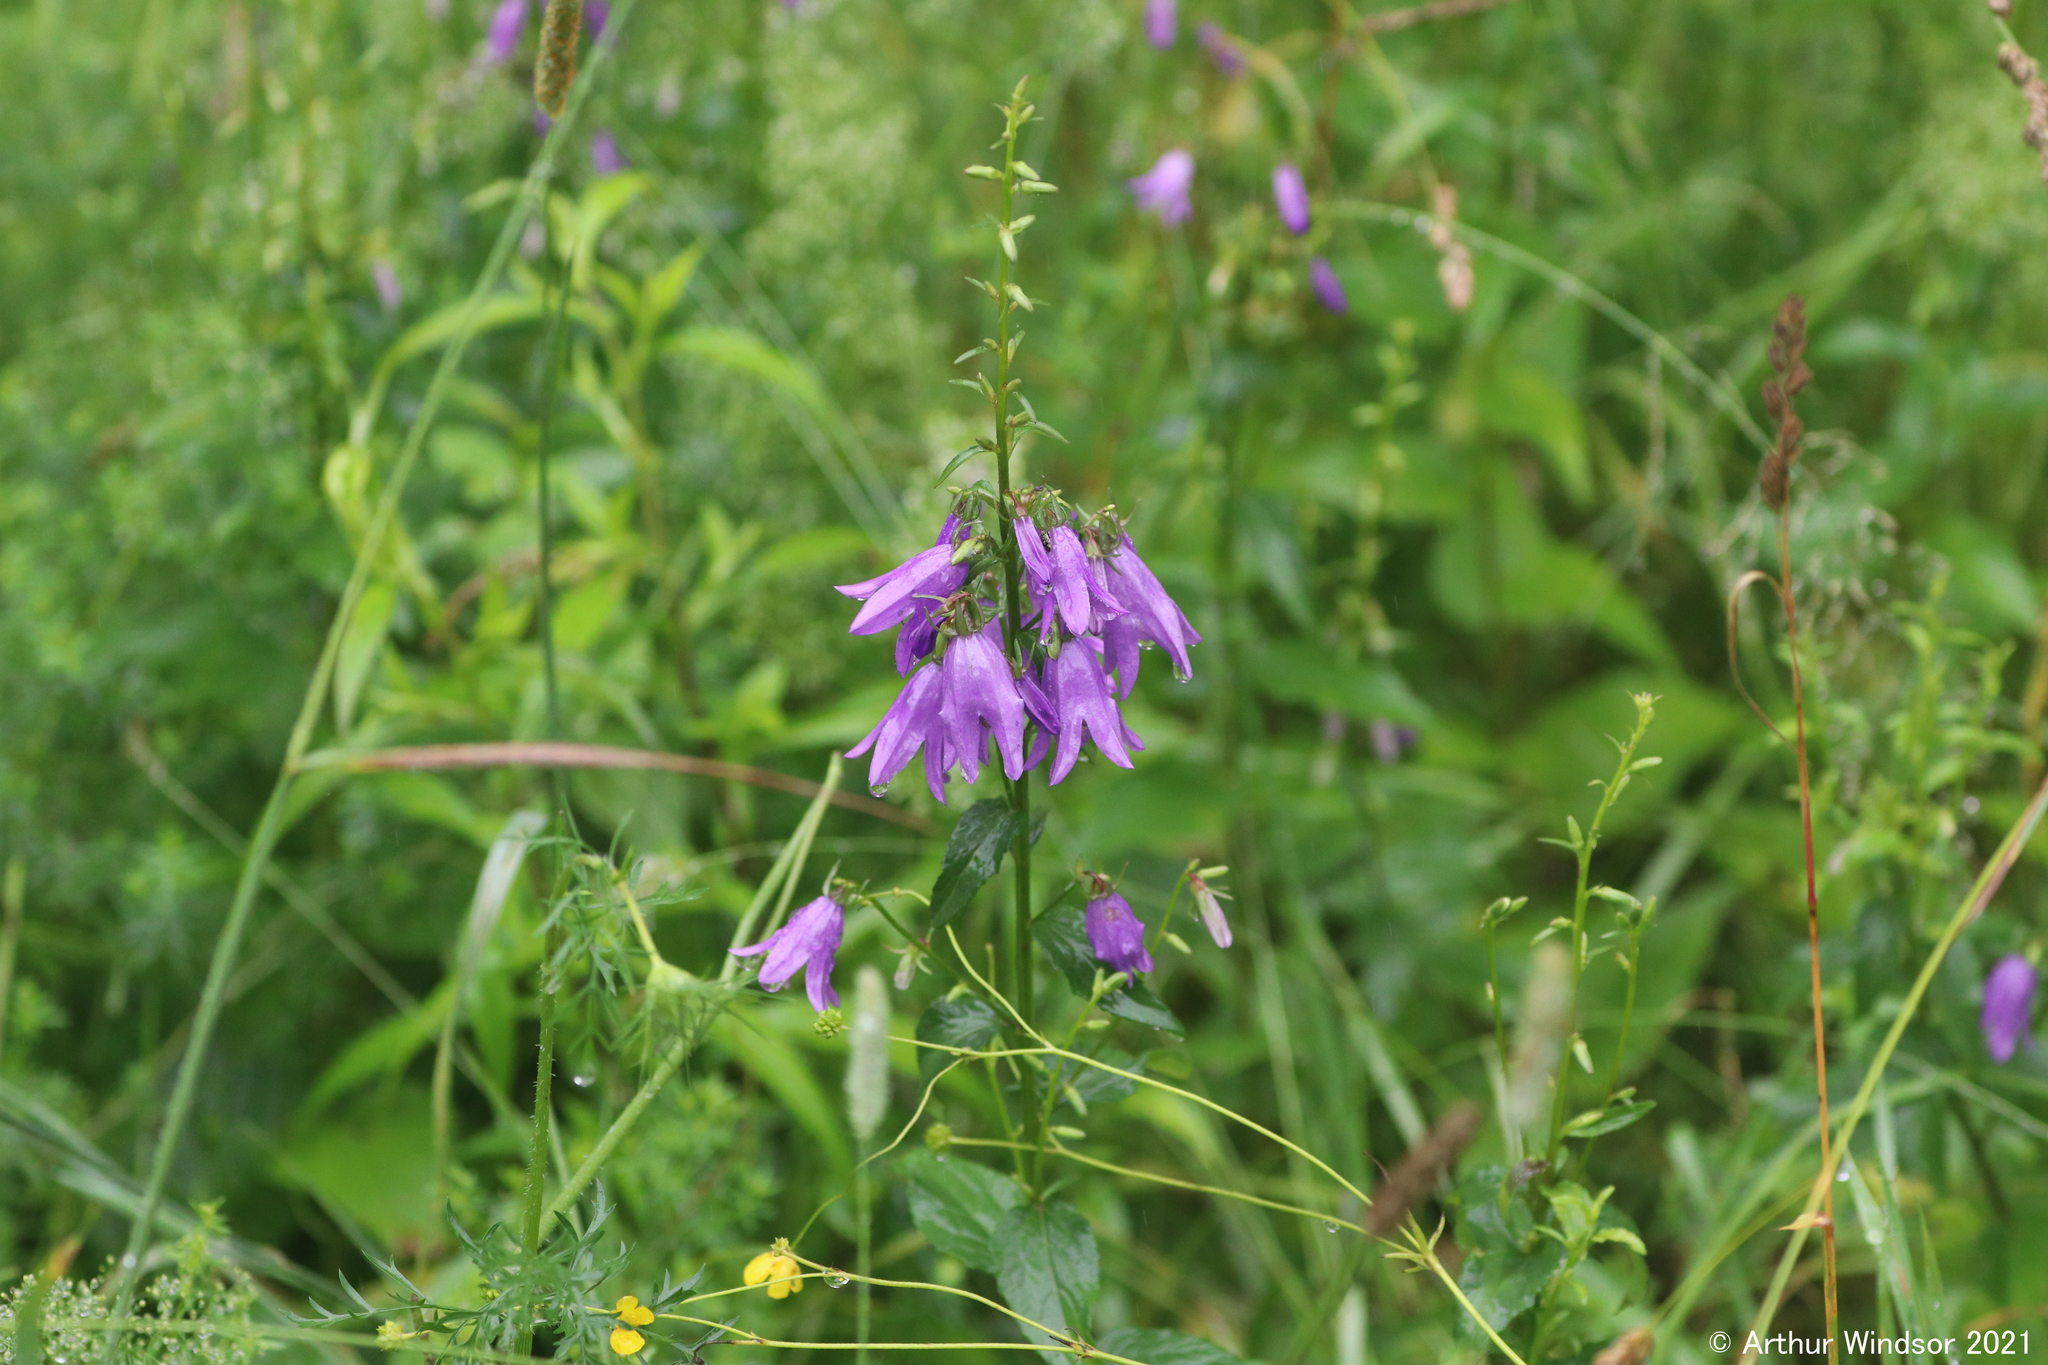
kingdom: Plantae
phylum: Tracheophyta
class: Magnoliopsida
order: Asterales
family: Campanulaceae
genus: Campanula
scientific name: Campanula rapunculoides
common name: Creeping bellflower
